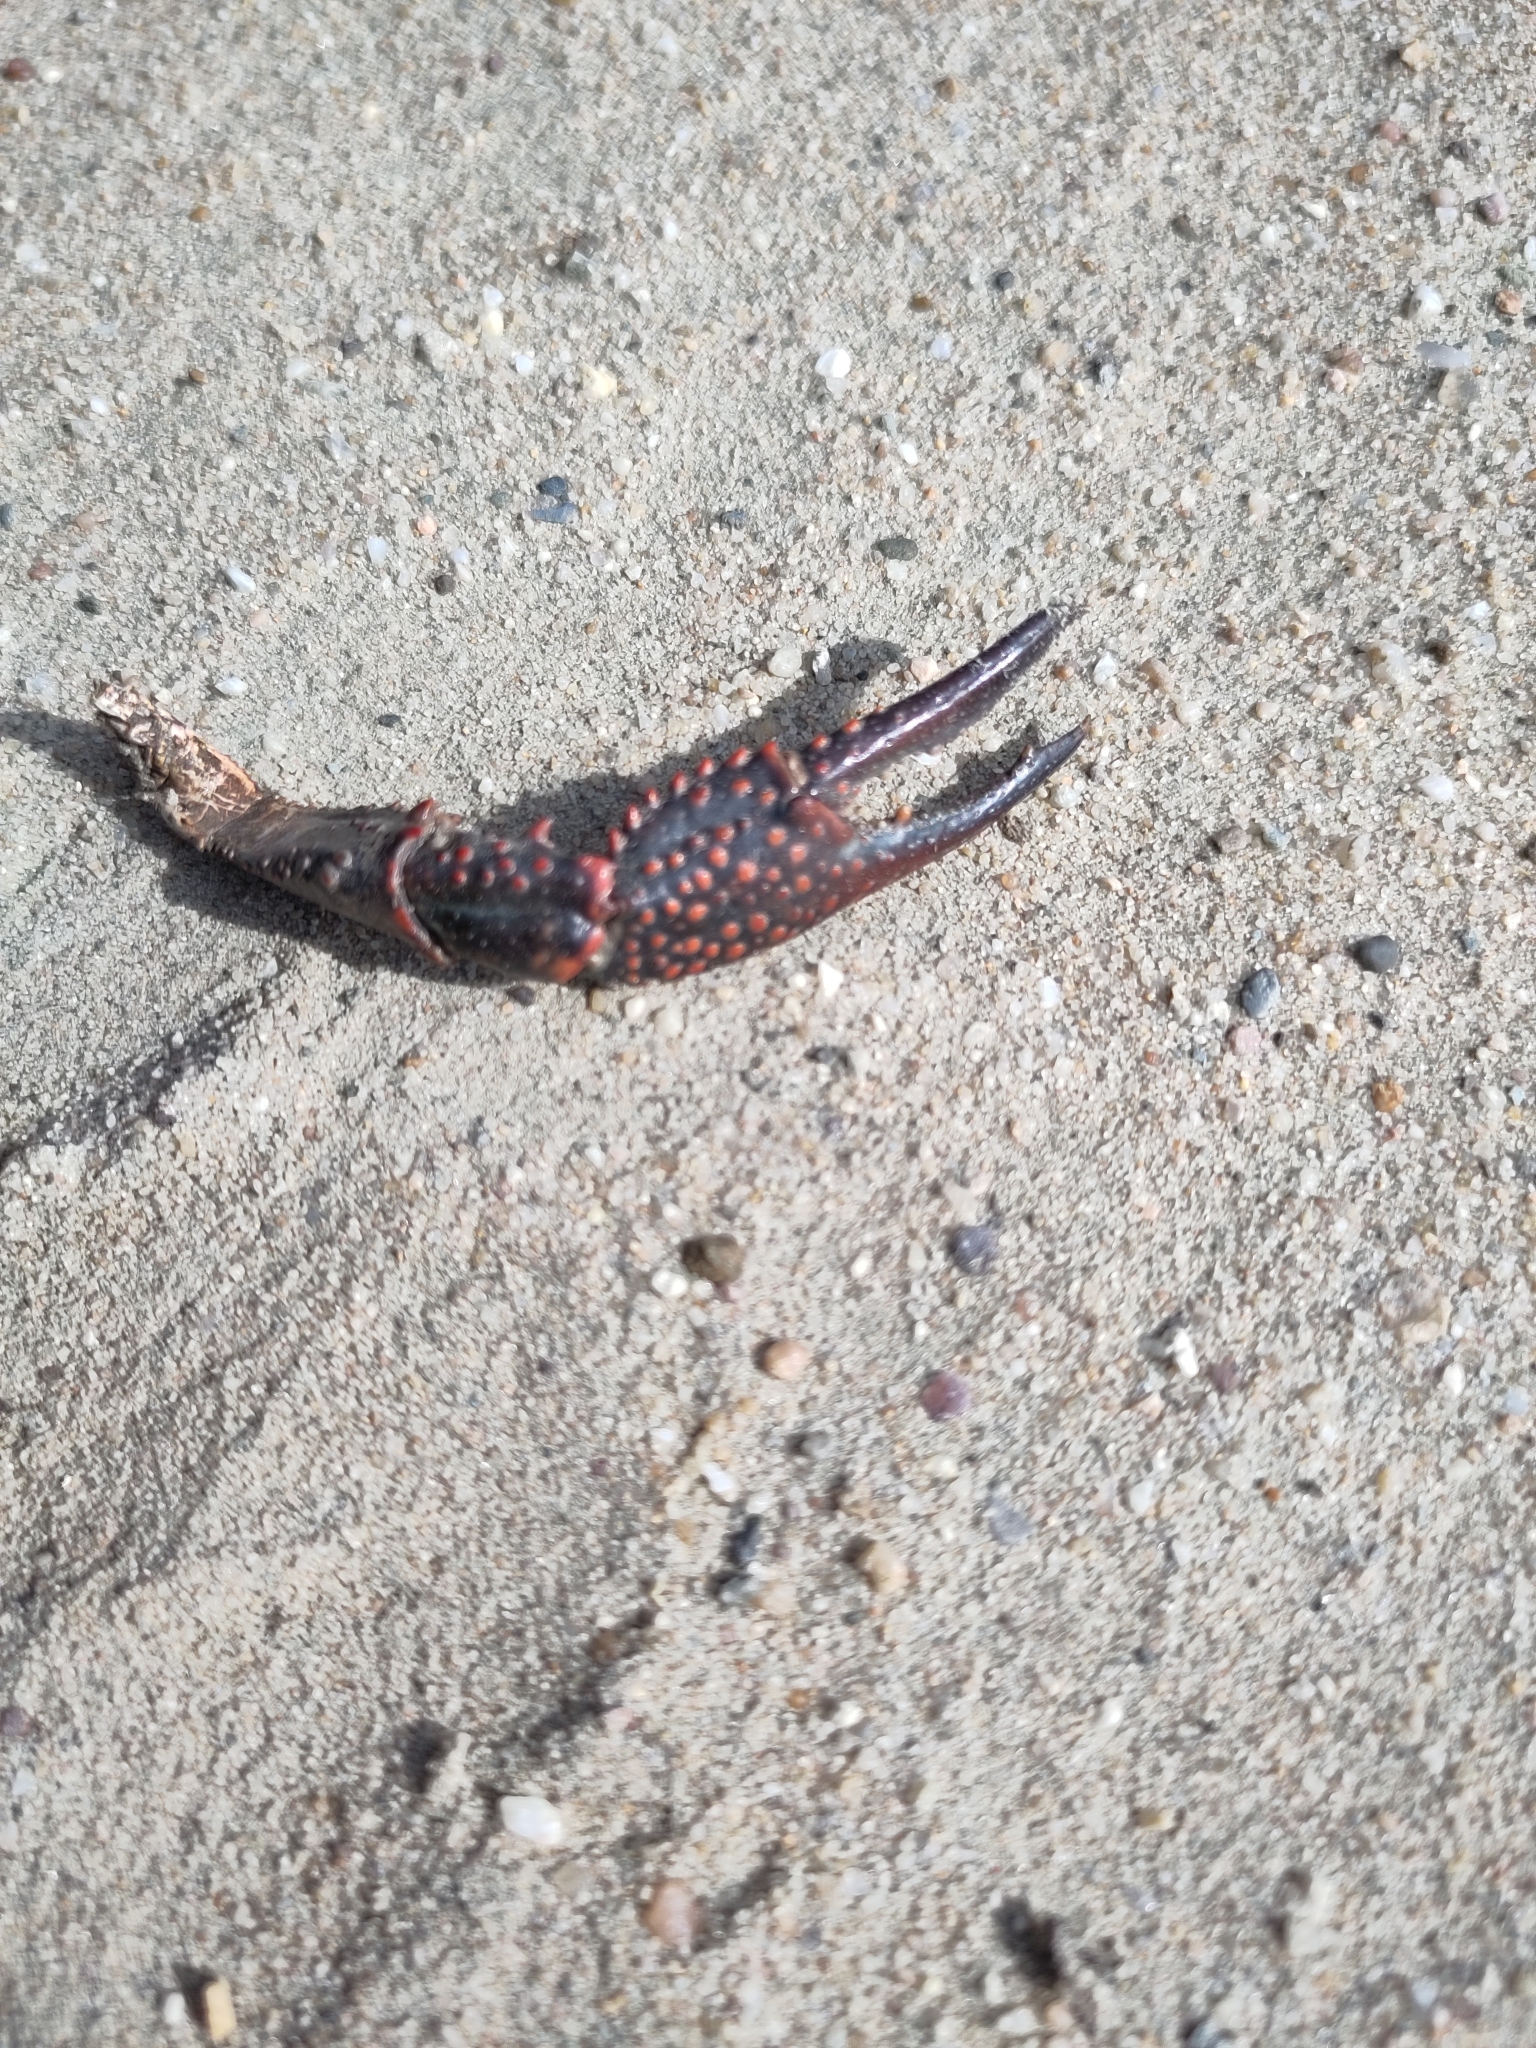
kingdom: Animalia
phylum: Arthropoda
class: Malacostraca
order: Decapoda
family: Cambaridae
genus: Procambarus
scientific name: Procambarus clarkii
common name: Red swamp crayfish
